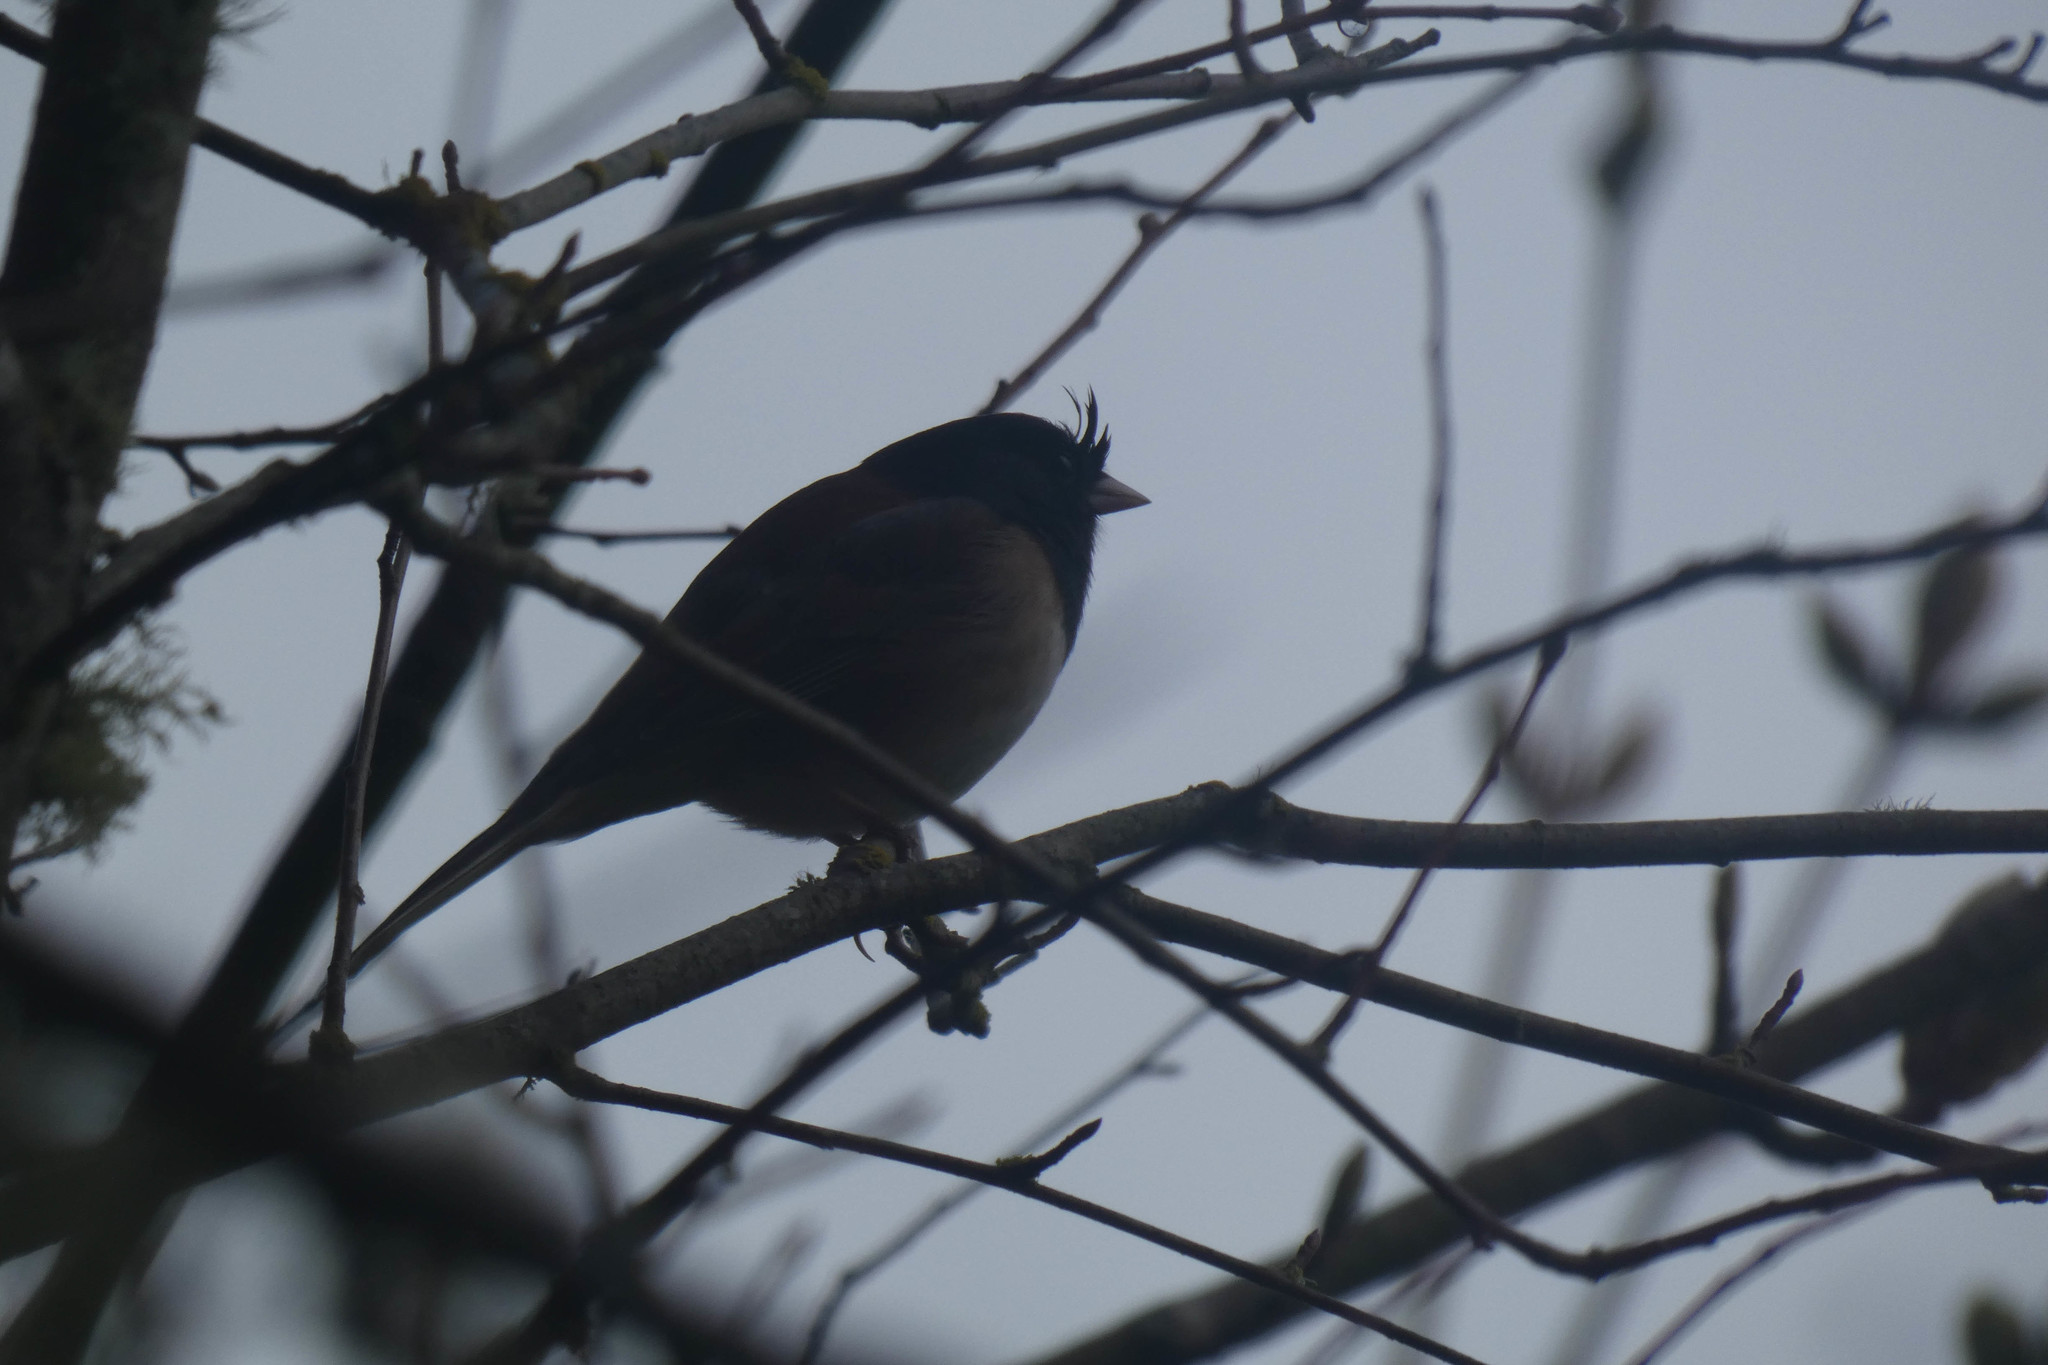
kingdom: Animalia
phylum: Chordata
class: Aves
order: Passeriformes
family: Passerellidae
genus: Junco
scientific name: Junco hyemalis
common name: Dark-eyed junco
